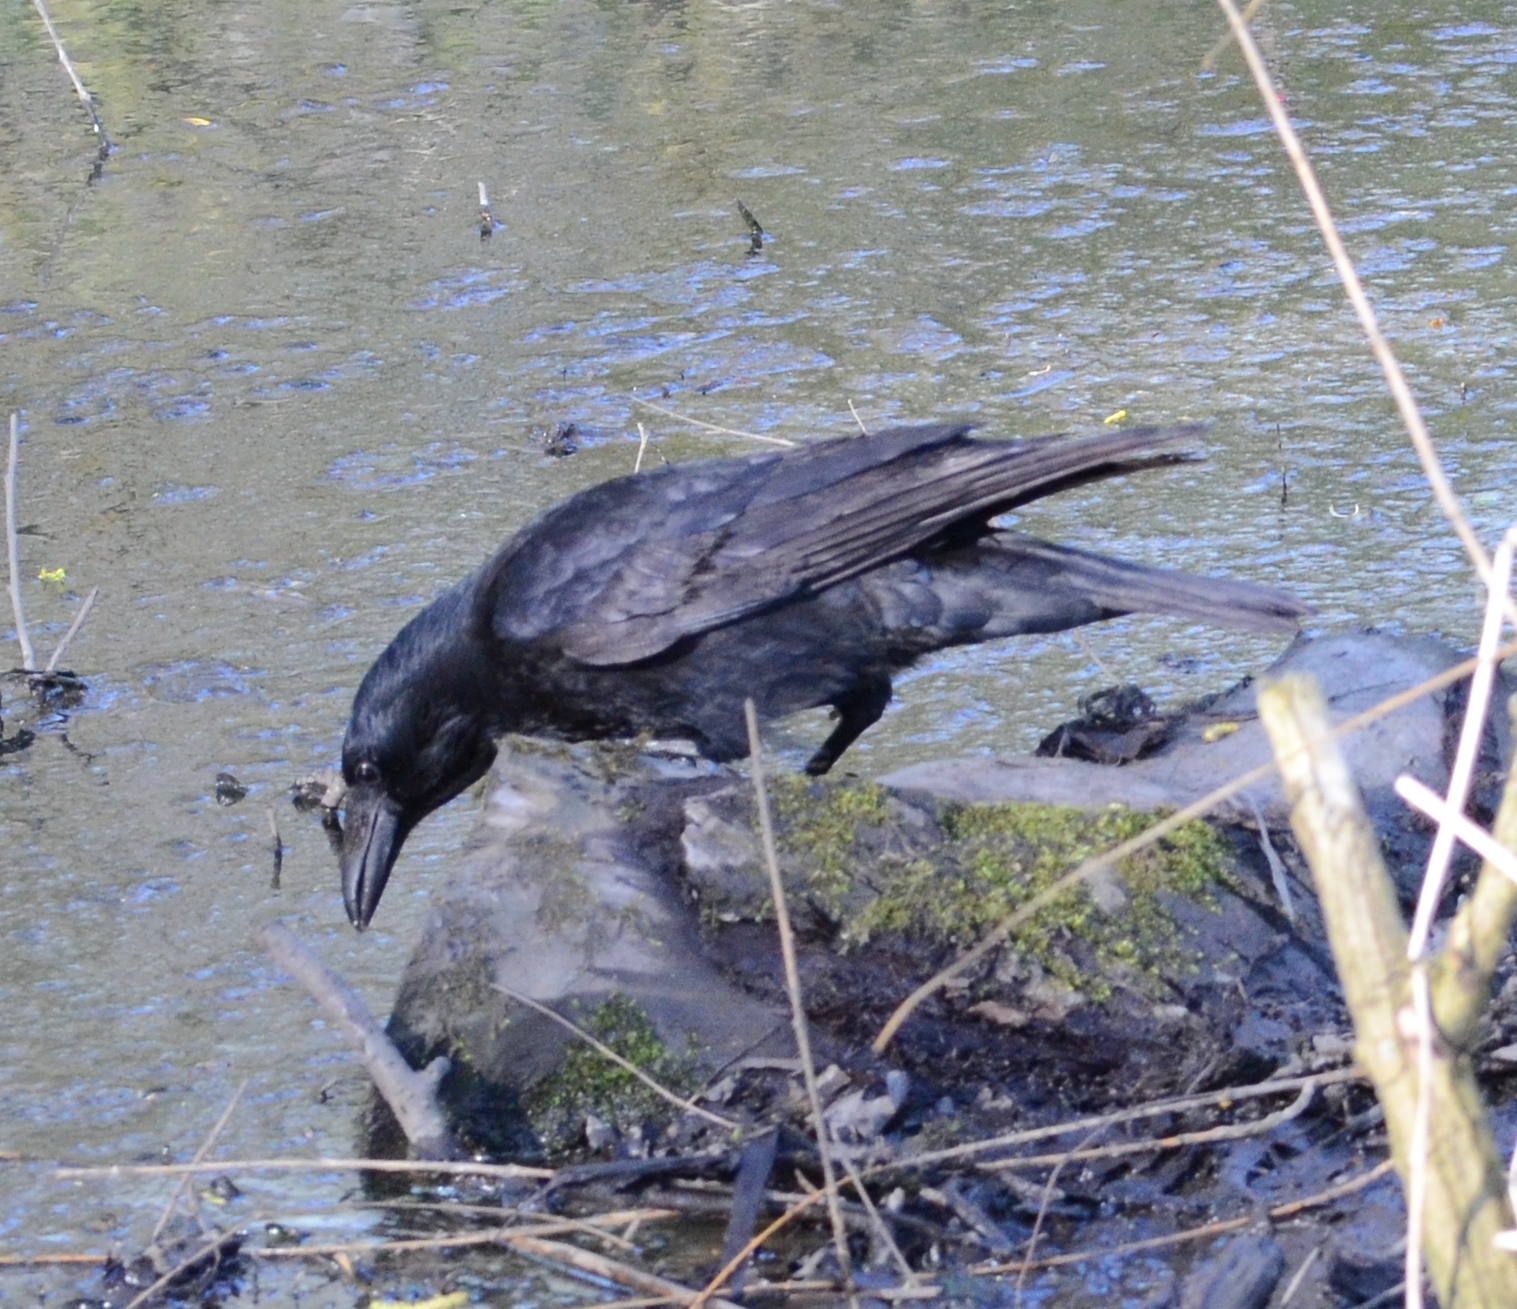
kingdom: Animalia
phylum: Chordata
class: Aves
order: Passeriformes
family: Corvidae
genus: Corvus
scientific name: Corvus corone
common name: Carrion crow
